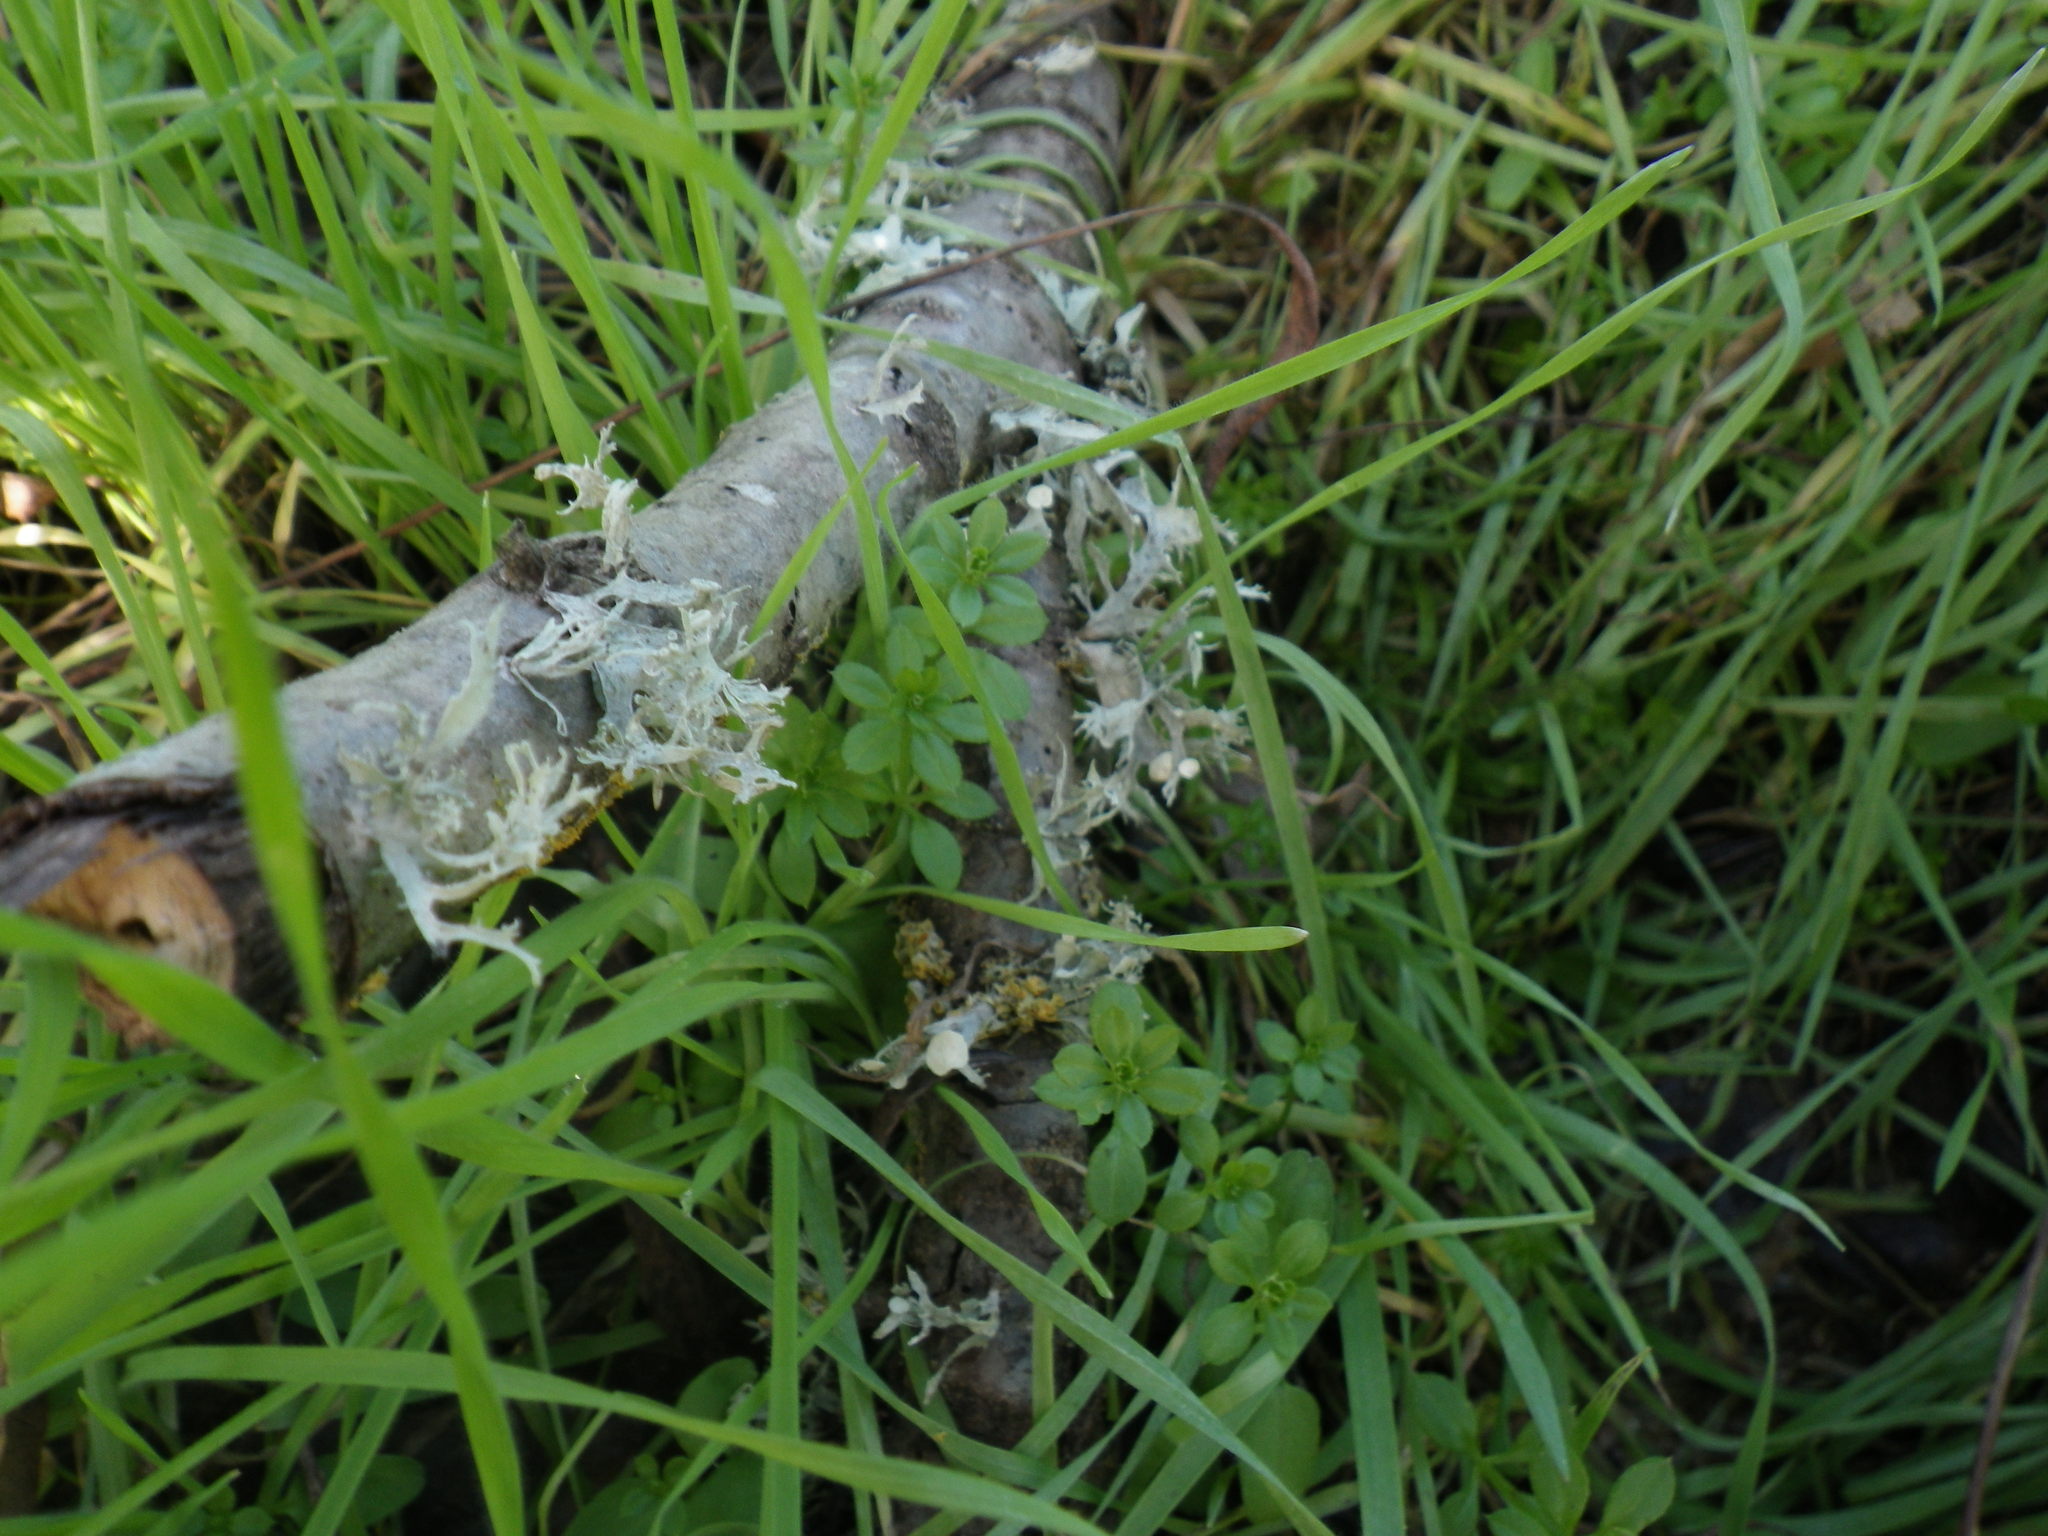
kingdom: Fungi
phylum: Ascomycota
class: Lecanoromycetes
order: Lecanorales
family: Parmeliaceae
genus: Evernia
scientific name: Evernia prunastri
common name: Oak moss
